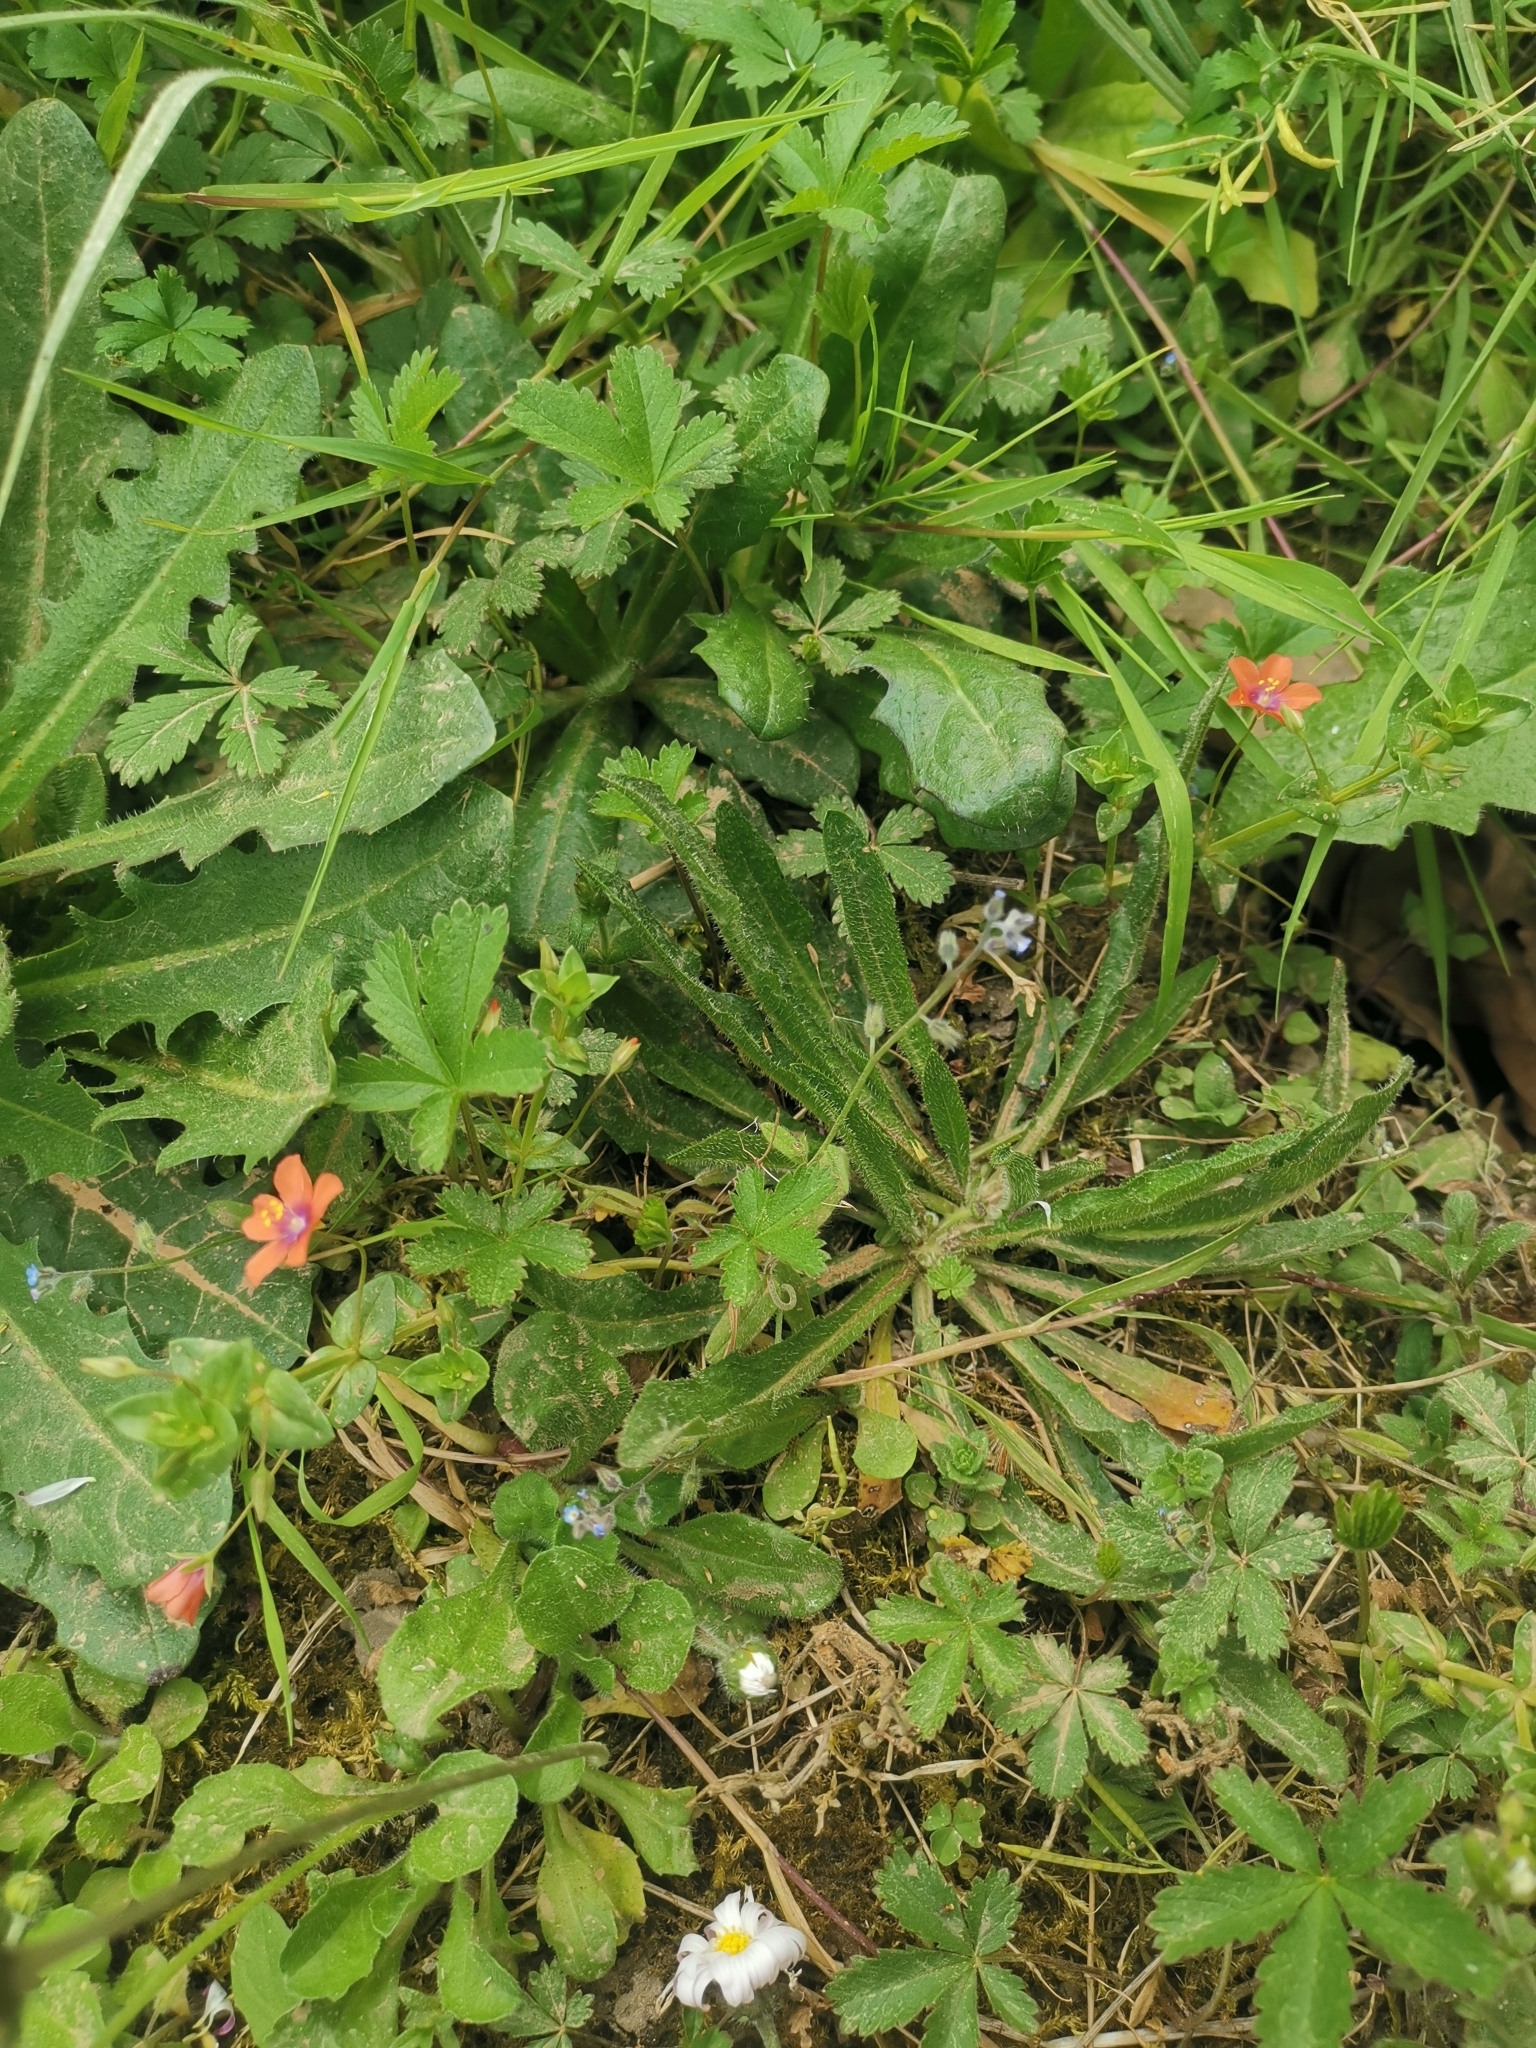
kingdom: Plantae
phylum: Tracheophyta
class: Magnoliopsida
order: Ericales
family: Primulaceae
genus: Lysimachia
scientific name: Lysimachia arvensis
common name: Scarlet pimpernel
